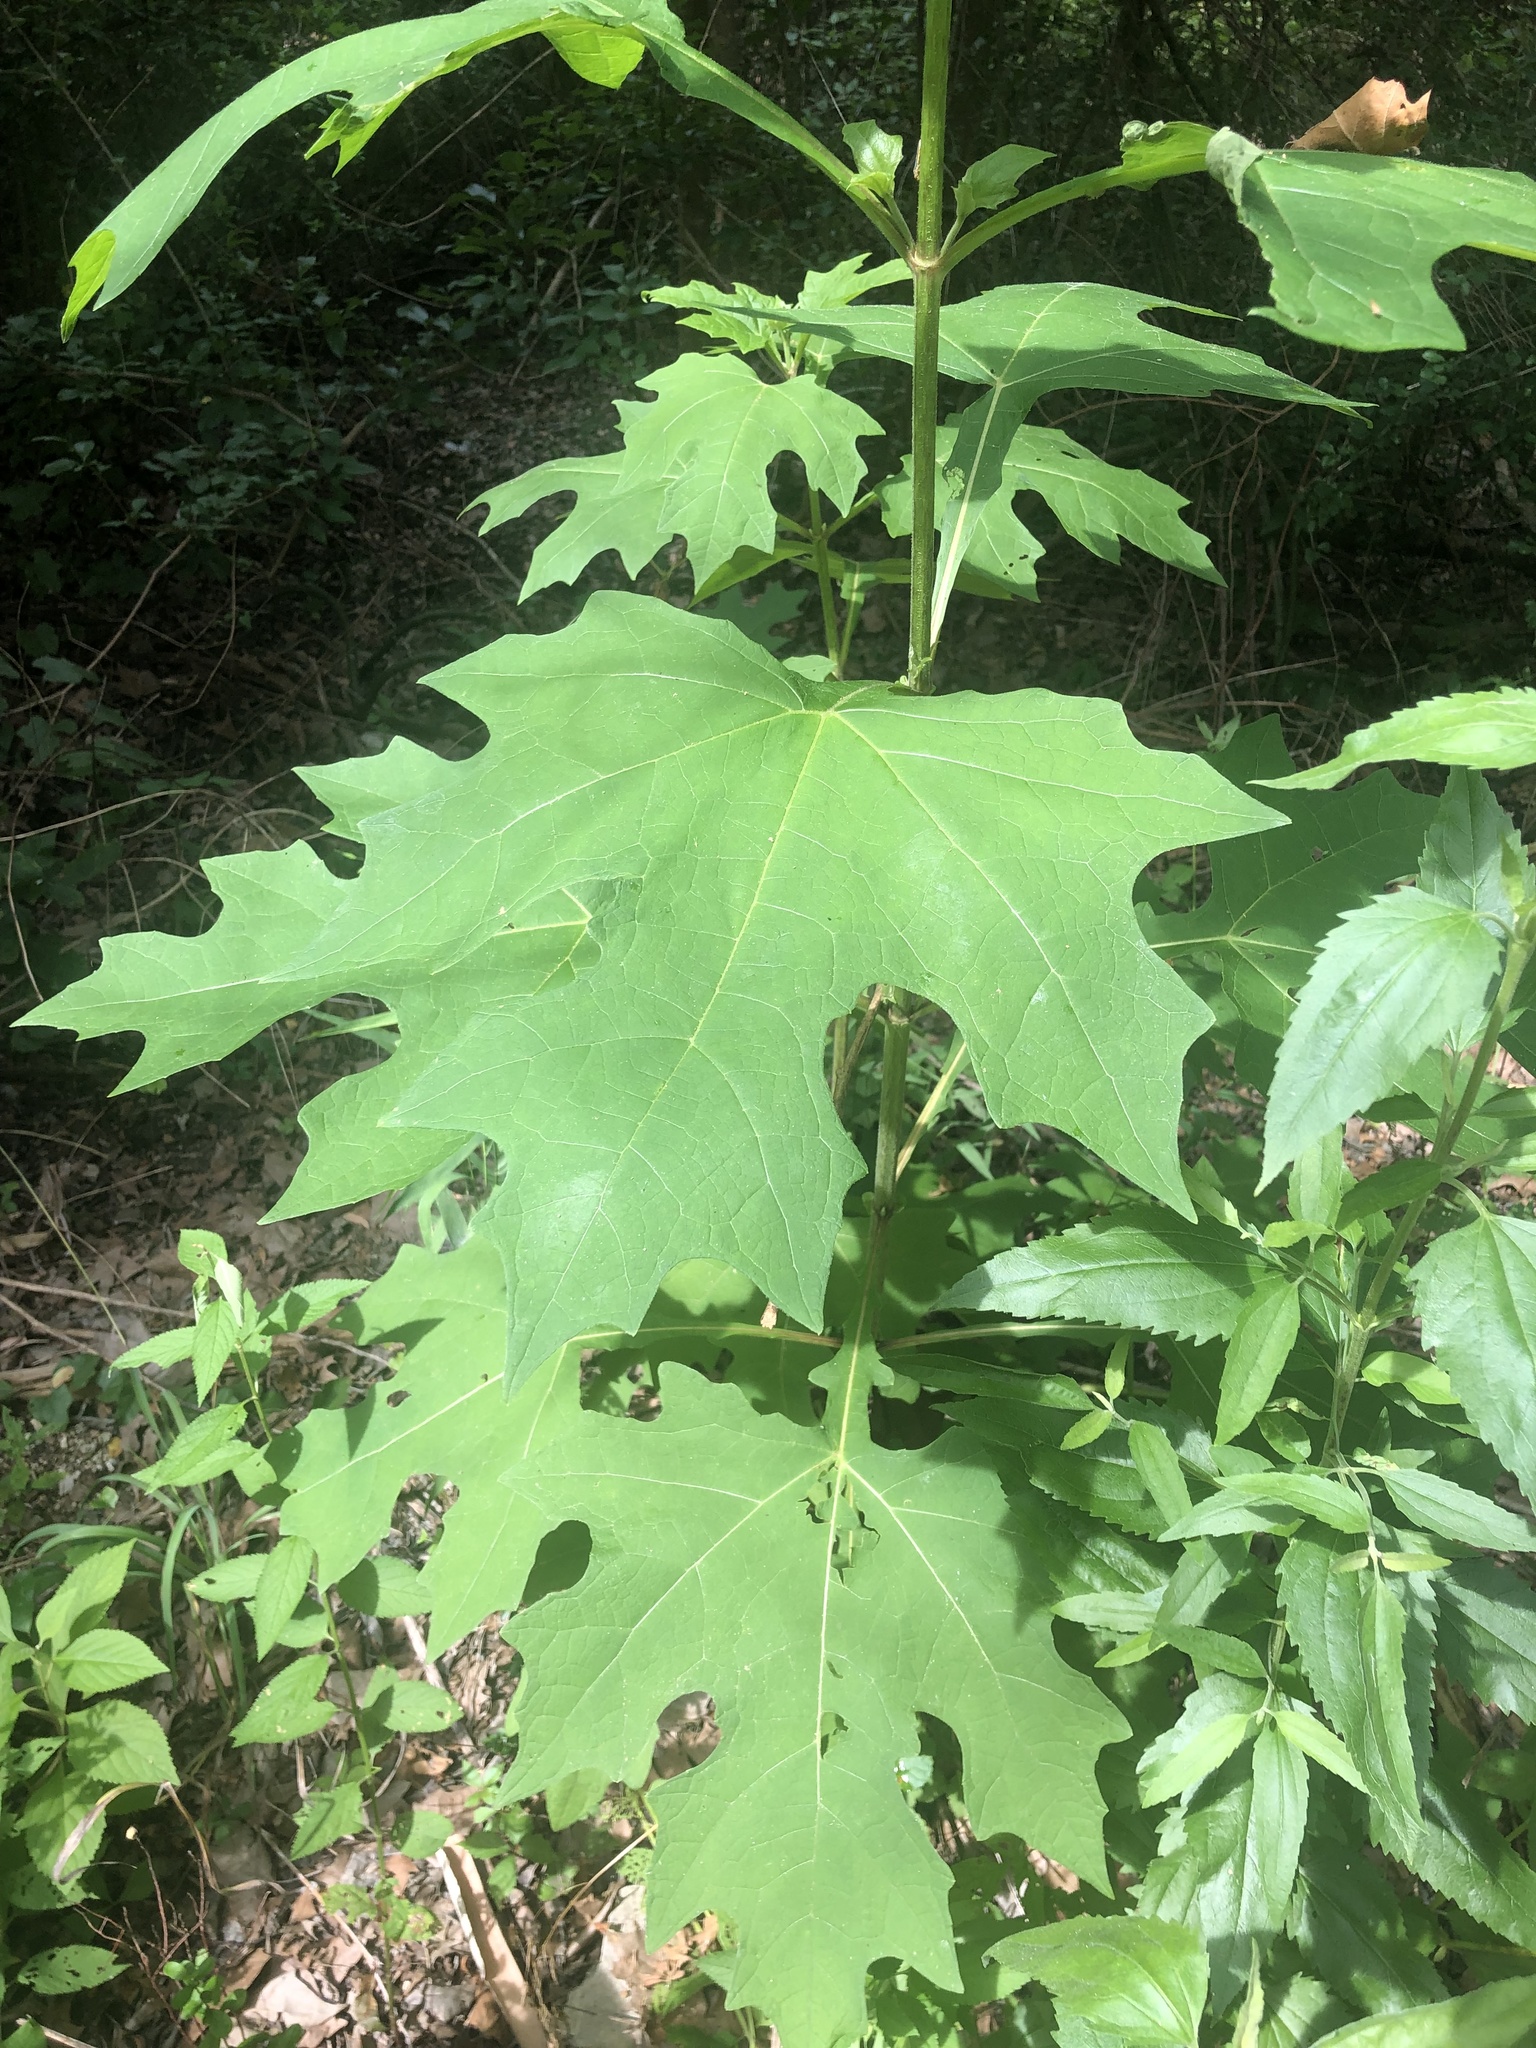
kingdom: Plantae
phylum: Tracheophyta
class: Magnoliopsida
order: Asterales
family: Asteraceae
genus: Smallanthus
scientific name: Smallanthus uvedalia
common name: Bear's-foot
